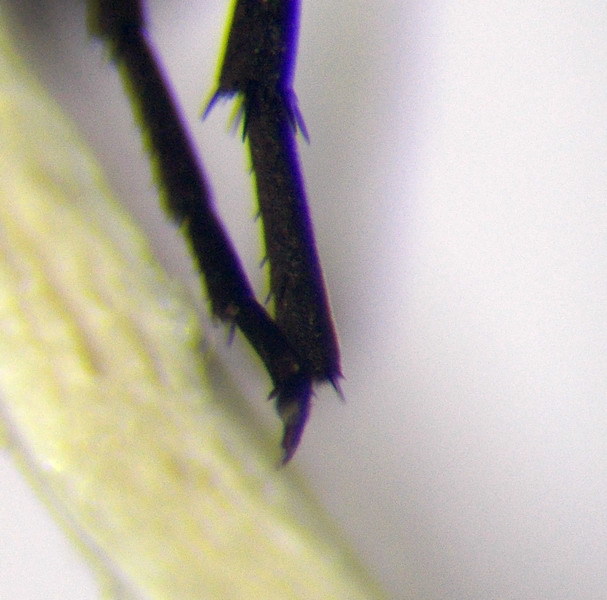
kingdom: Animalia
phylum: Arthropoda
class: Insecta
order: Hymenoptera
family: Pompilidae
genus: Aporinellus
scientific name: Aporinellus sexmaculatus
